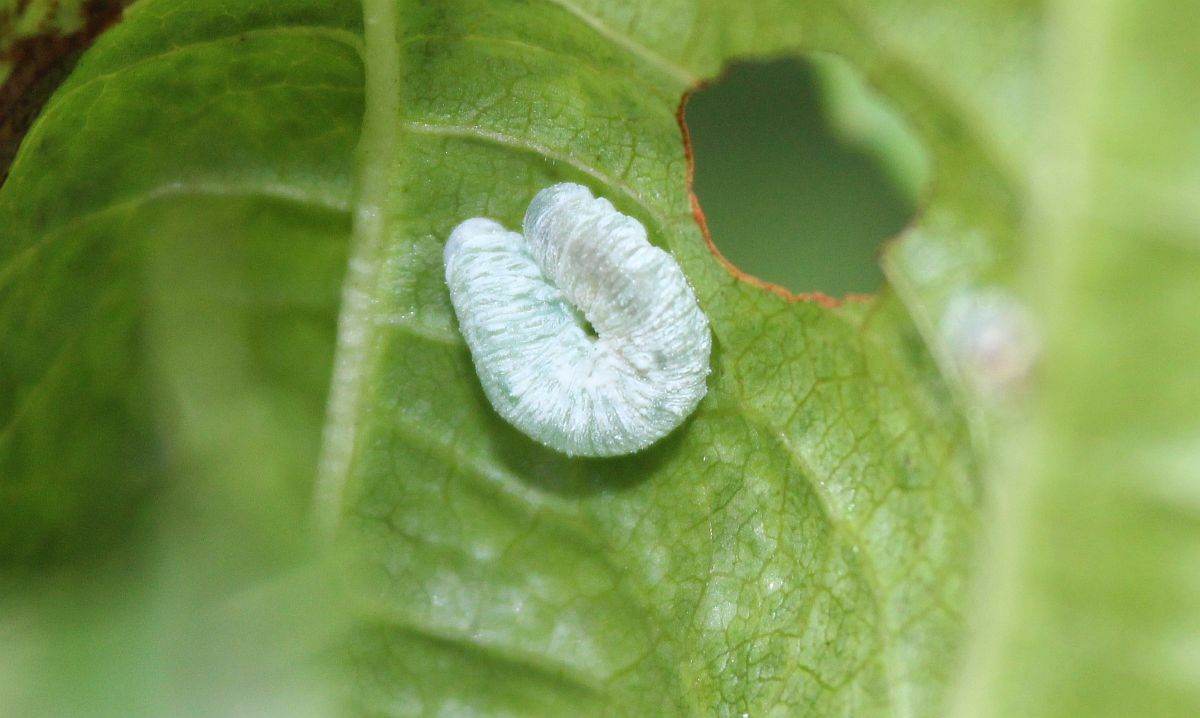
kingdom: Animalia
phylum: Arthropoda
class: Insecta
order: Hymenoptera
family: Tenthredinidae
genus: Eriocampa
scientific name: Eriocampa ovata
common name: Alder wooly sawfly
